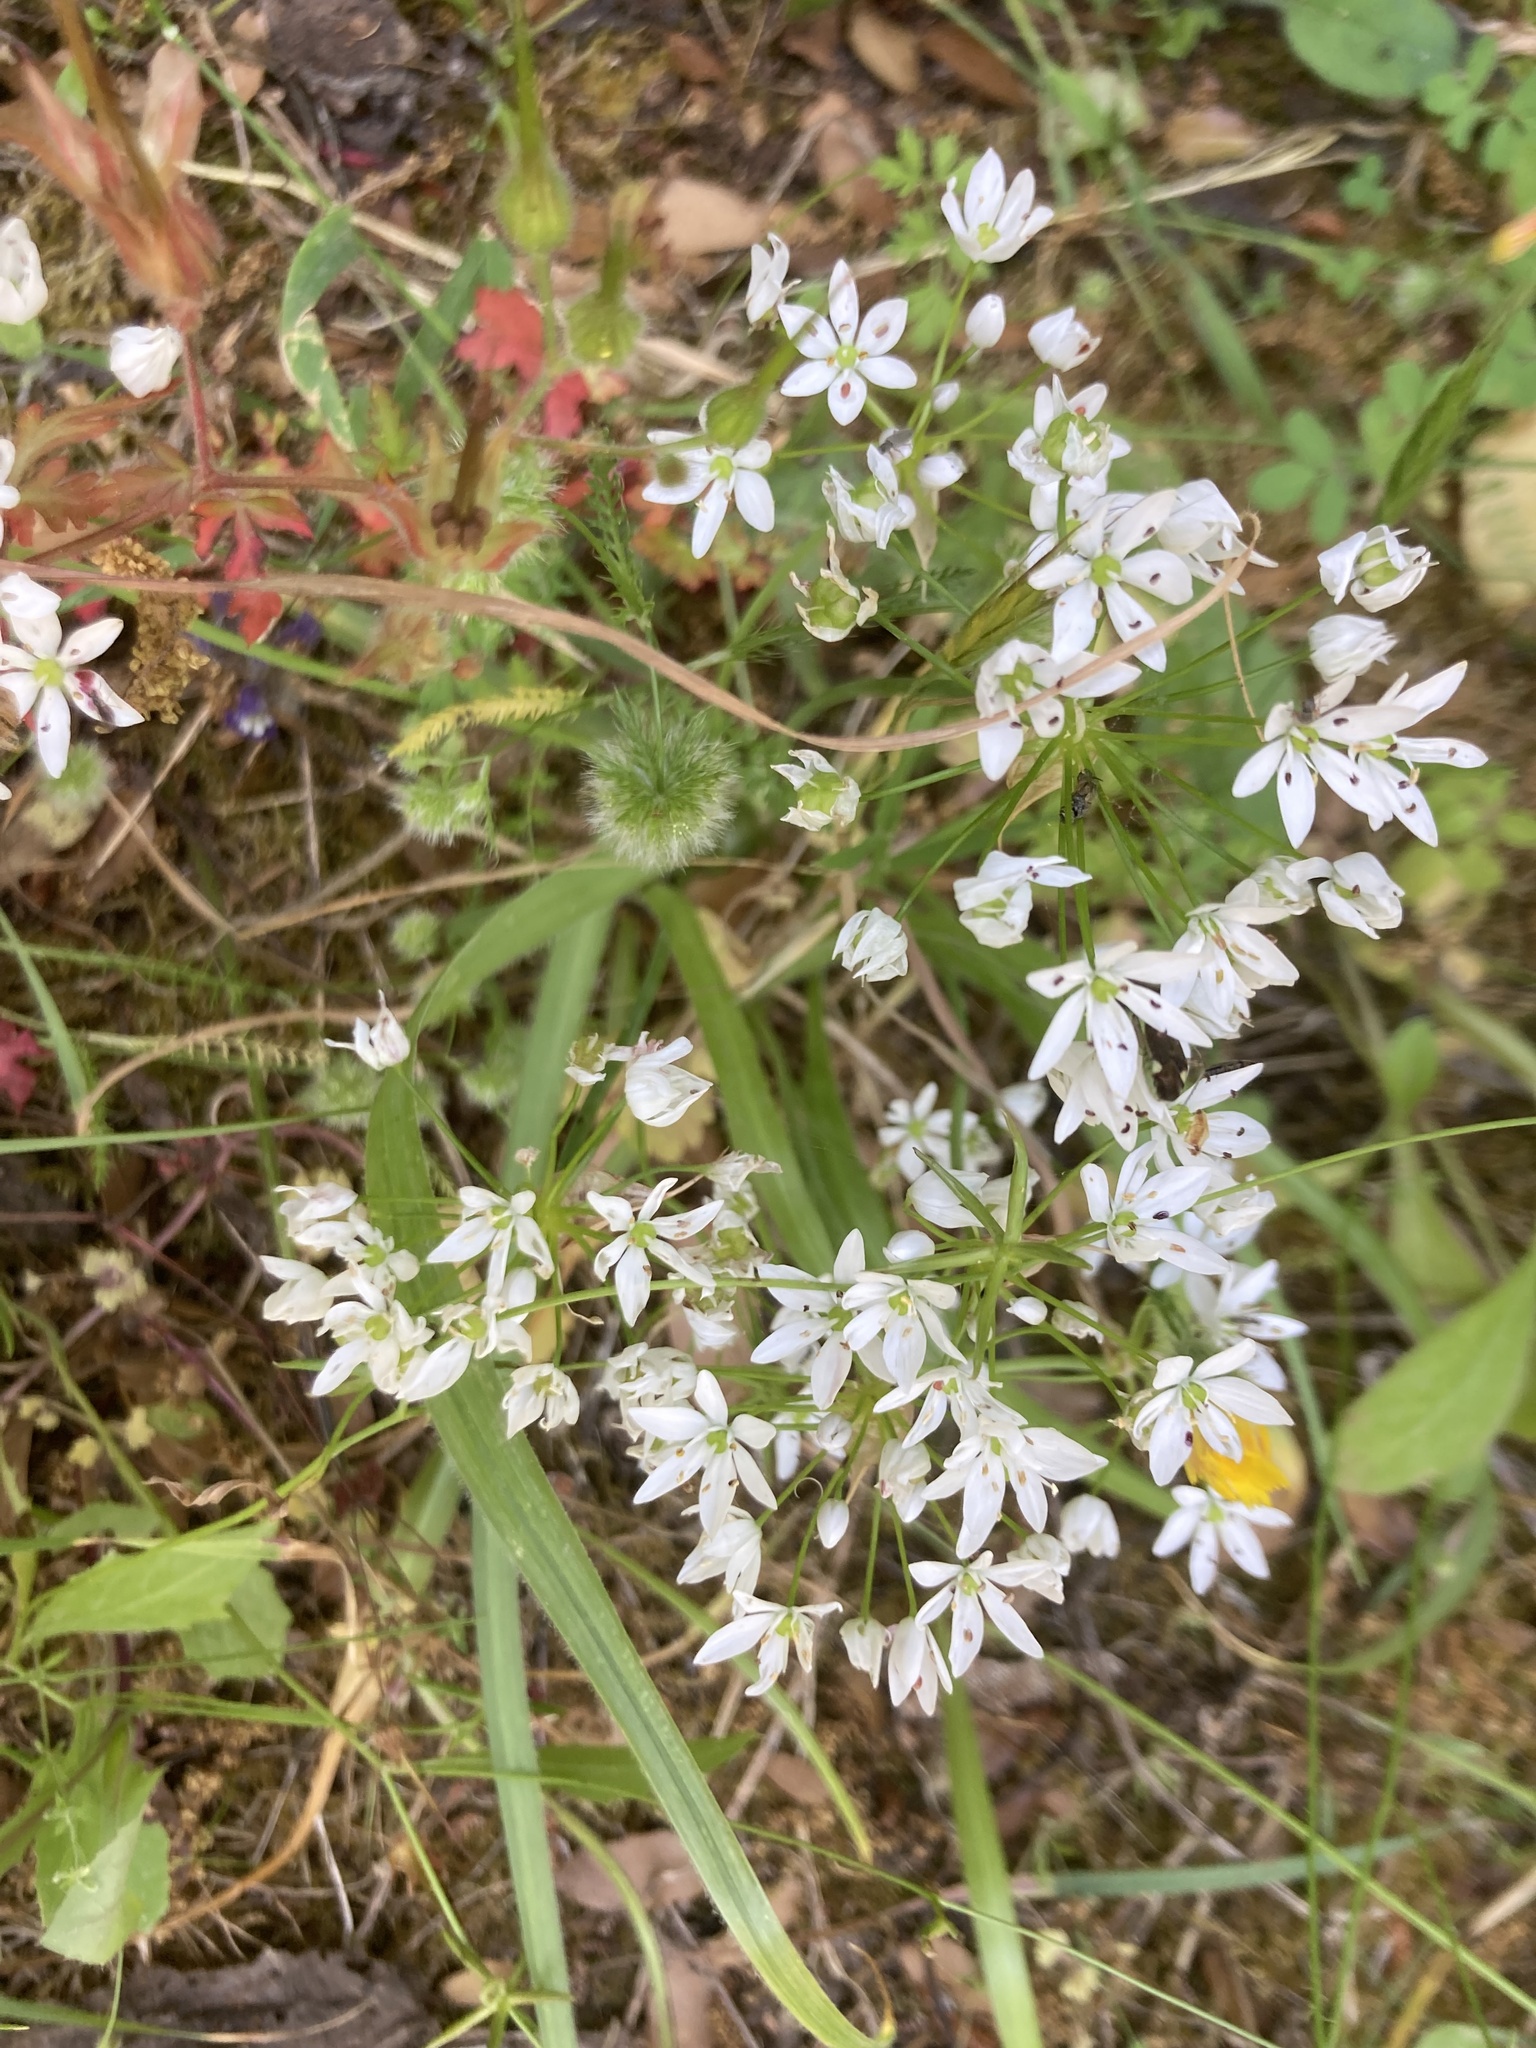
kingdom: Plantae
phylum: Tracheophyta
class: Liliopsida
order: Asparagales
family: Amaryllidaceae
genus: Allium
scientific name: Allium subhirsutum
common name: Hairy garlic
